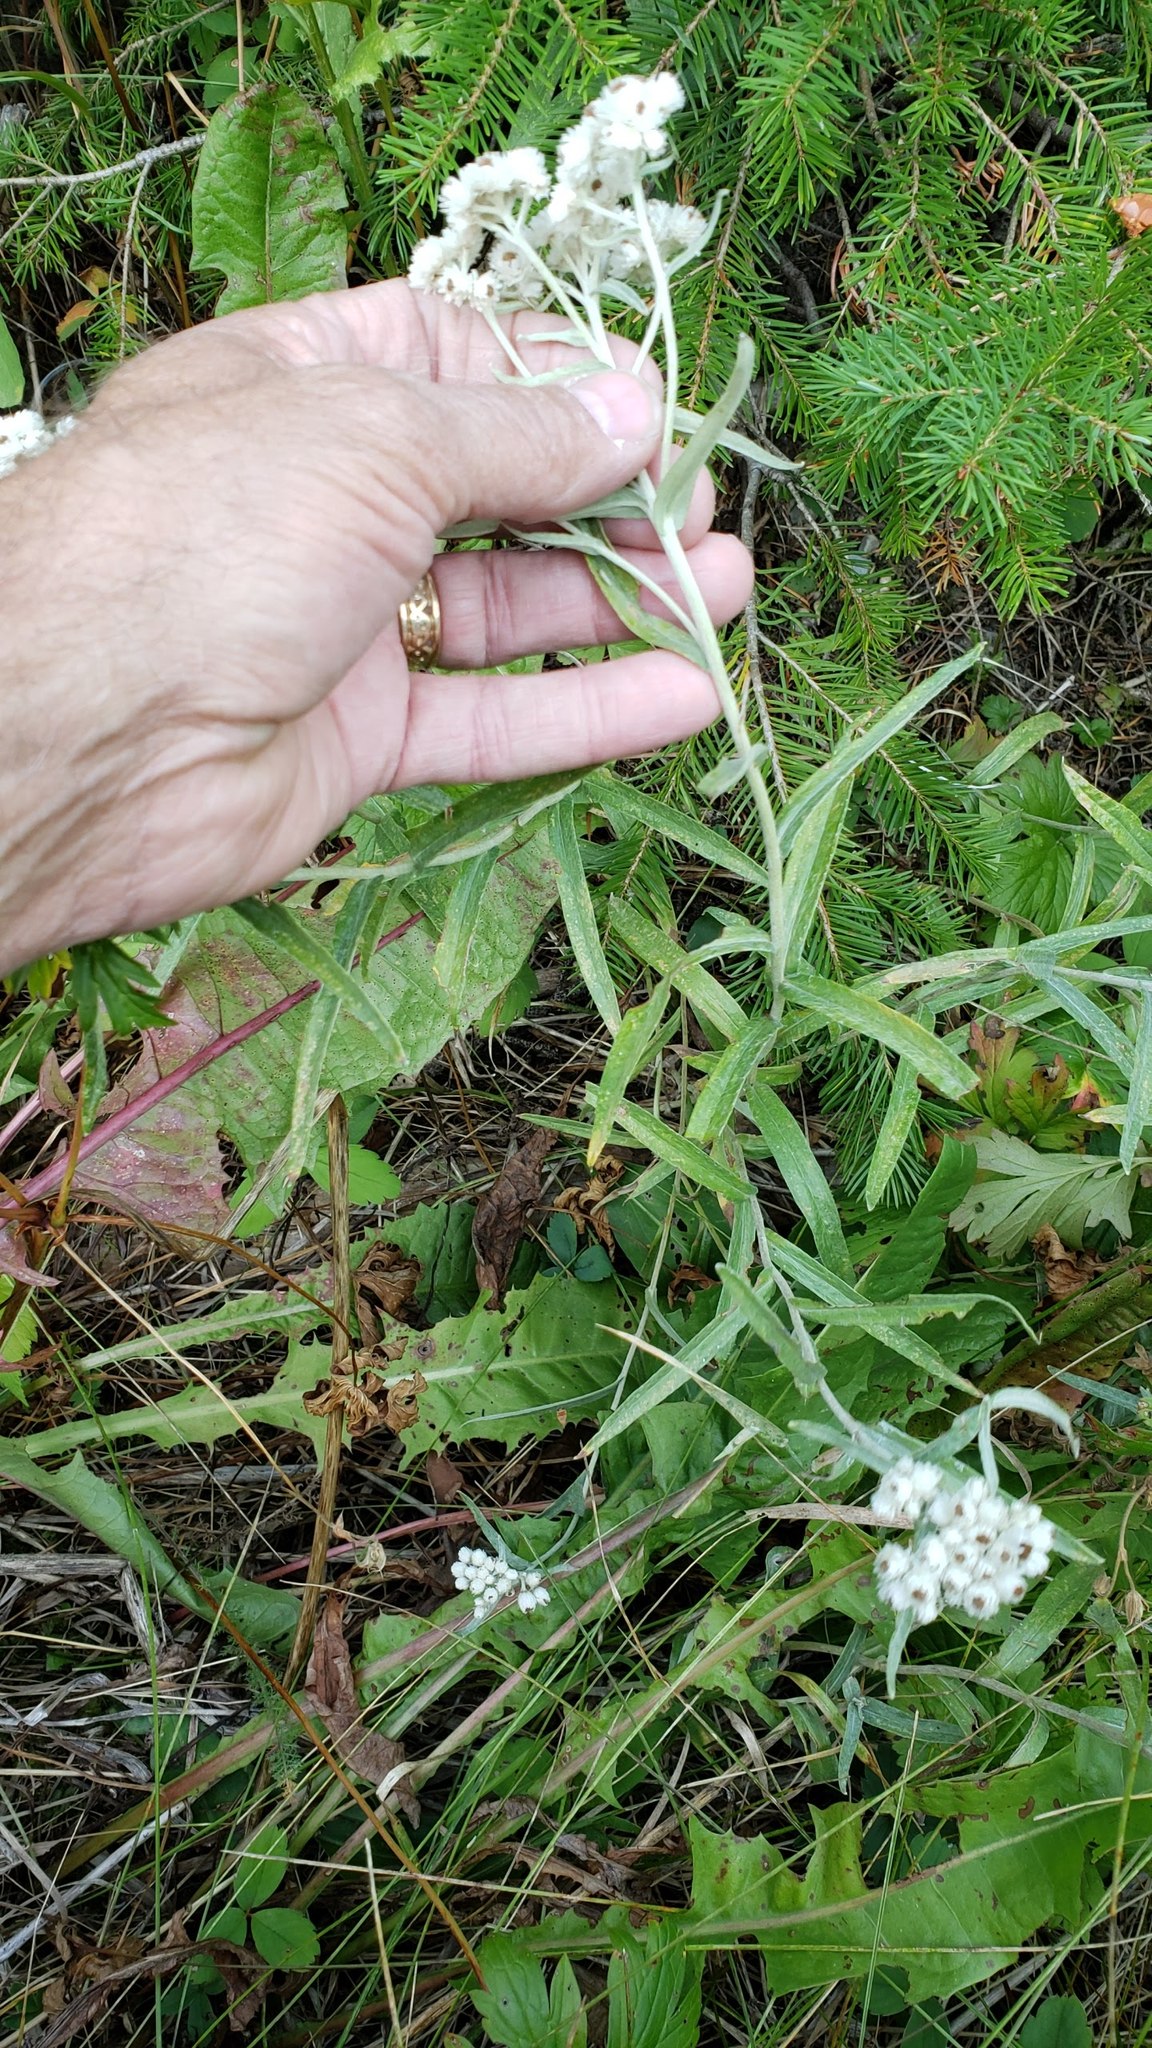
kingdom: Plantae
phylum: Tracheophyta
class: Magnoliopsida
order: Asterales
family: Asteraceae
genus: Anaphalis
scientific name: Anaphalis margaritacea
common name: Pearly everlasting
